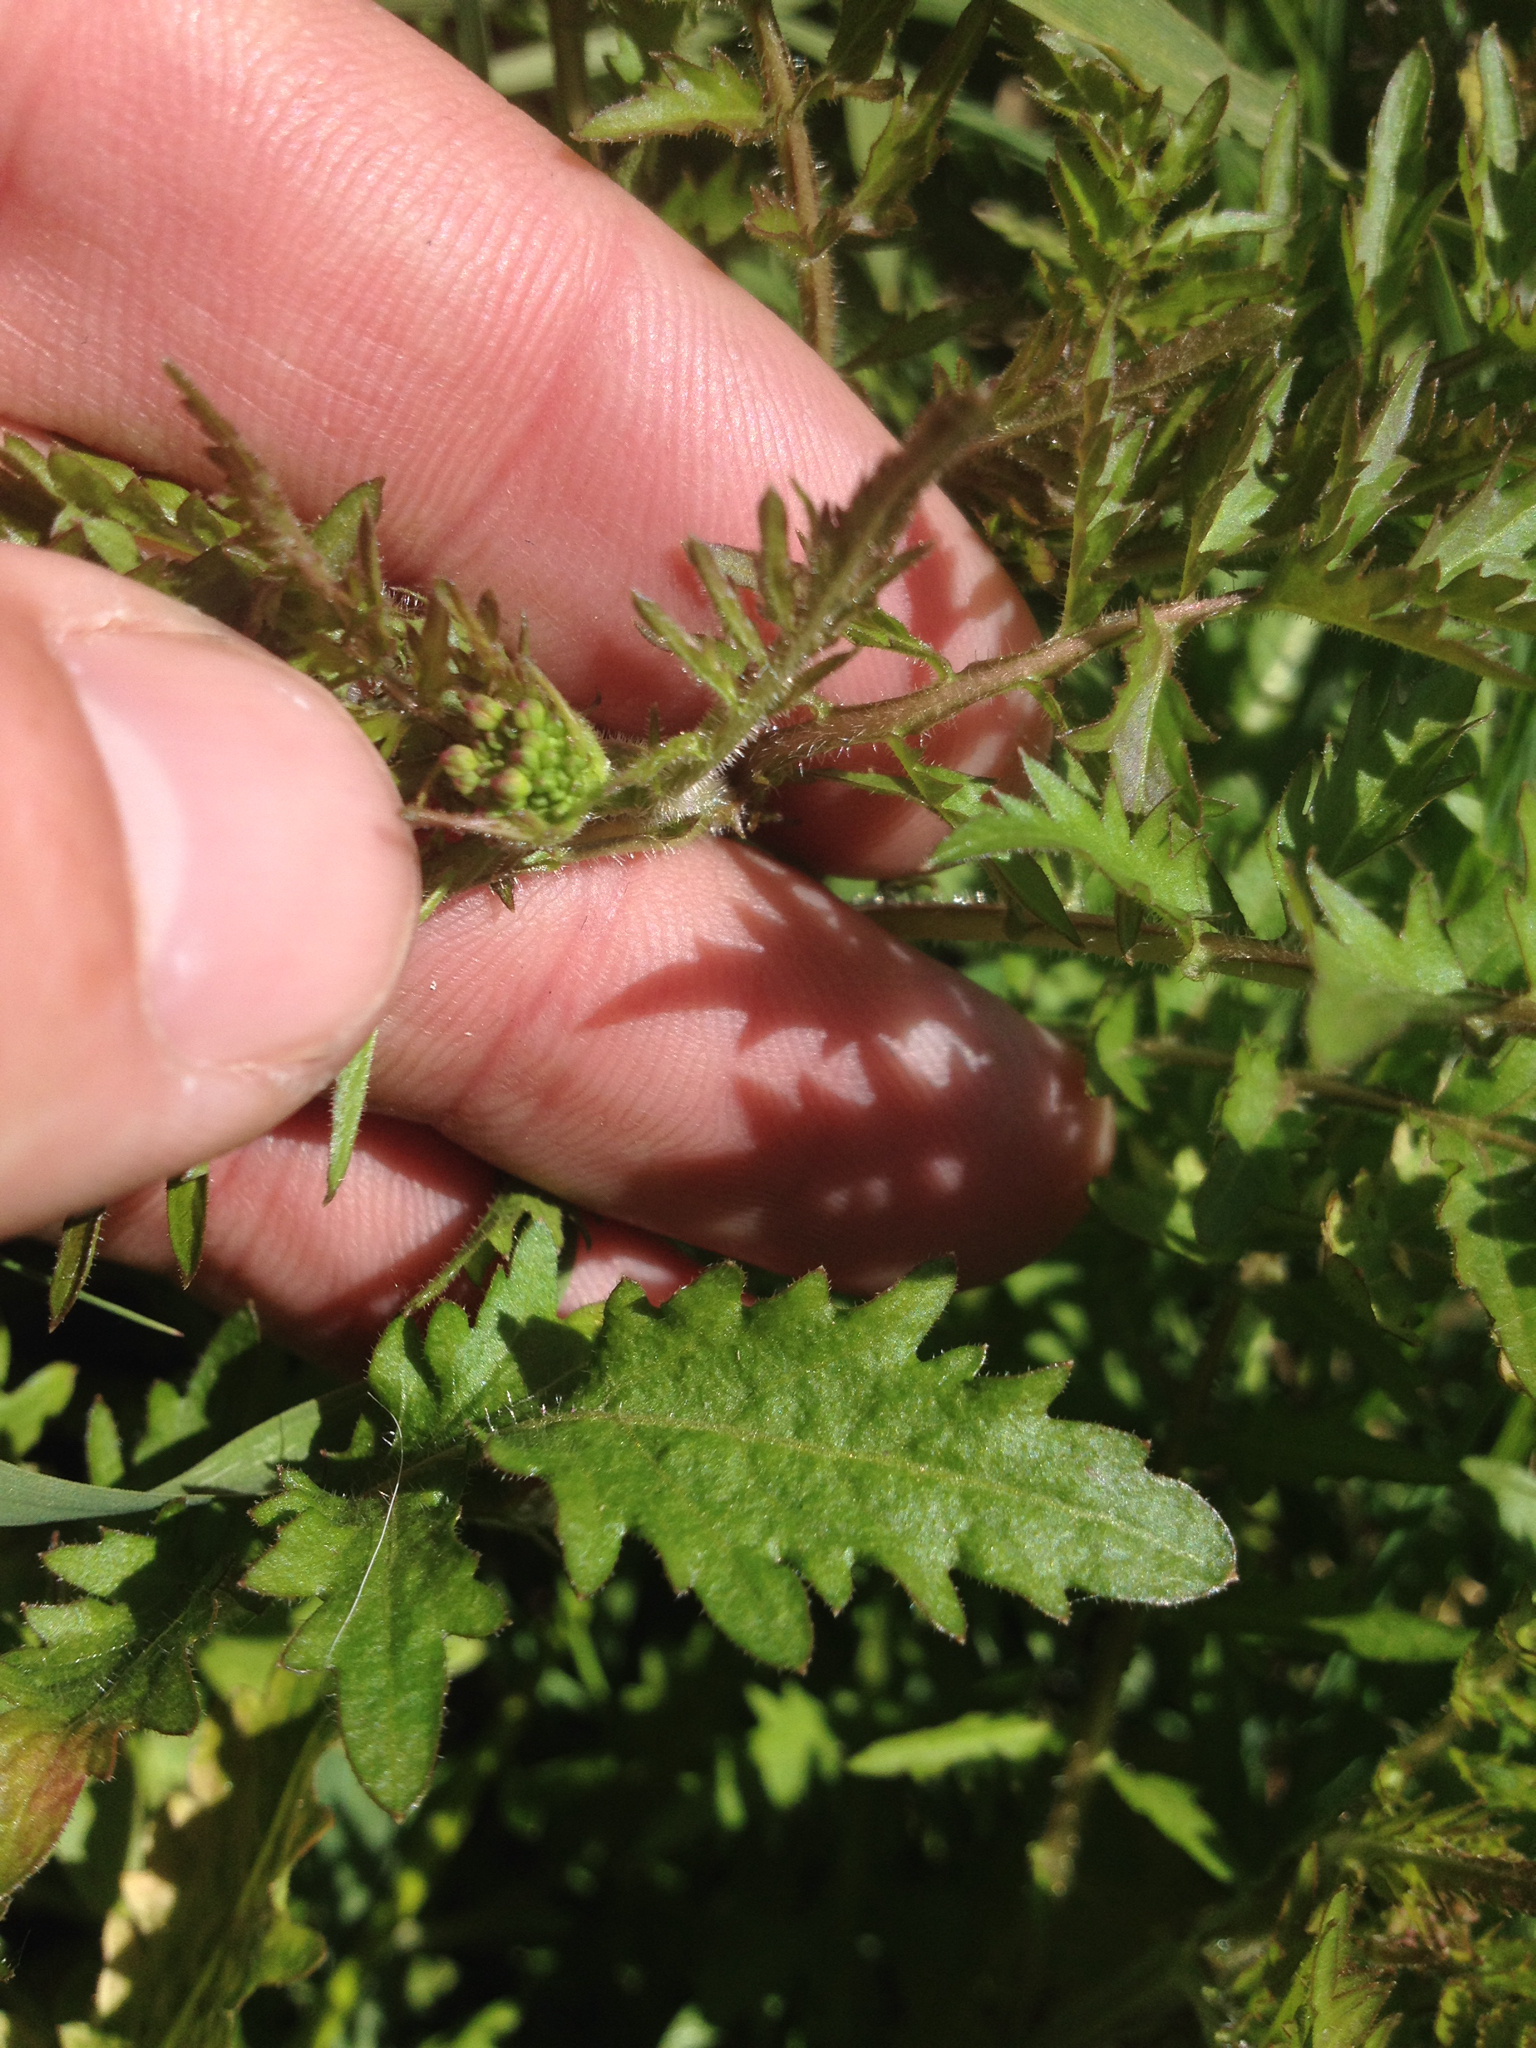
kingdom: Plantae
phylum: Tracheophyta
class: Magnoliopsida
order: Brassicales
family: Brassicaceae
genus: Rorippa
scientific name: Rorippa sylvestris
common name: Creeping yellowcress
